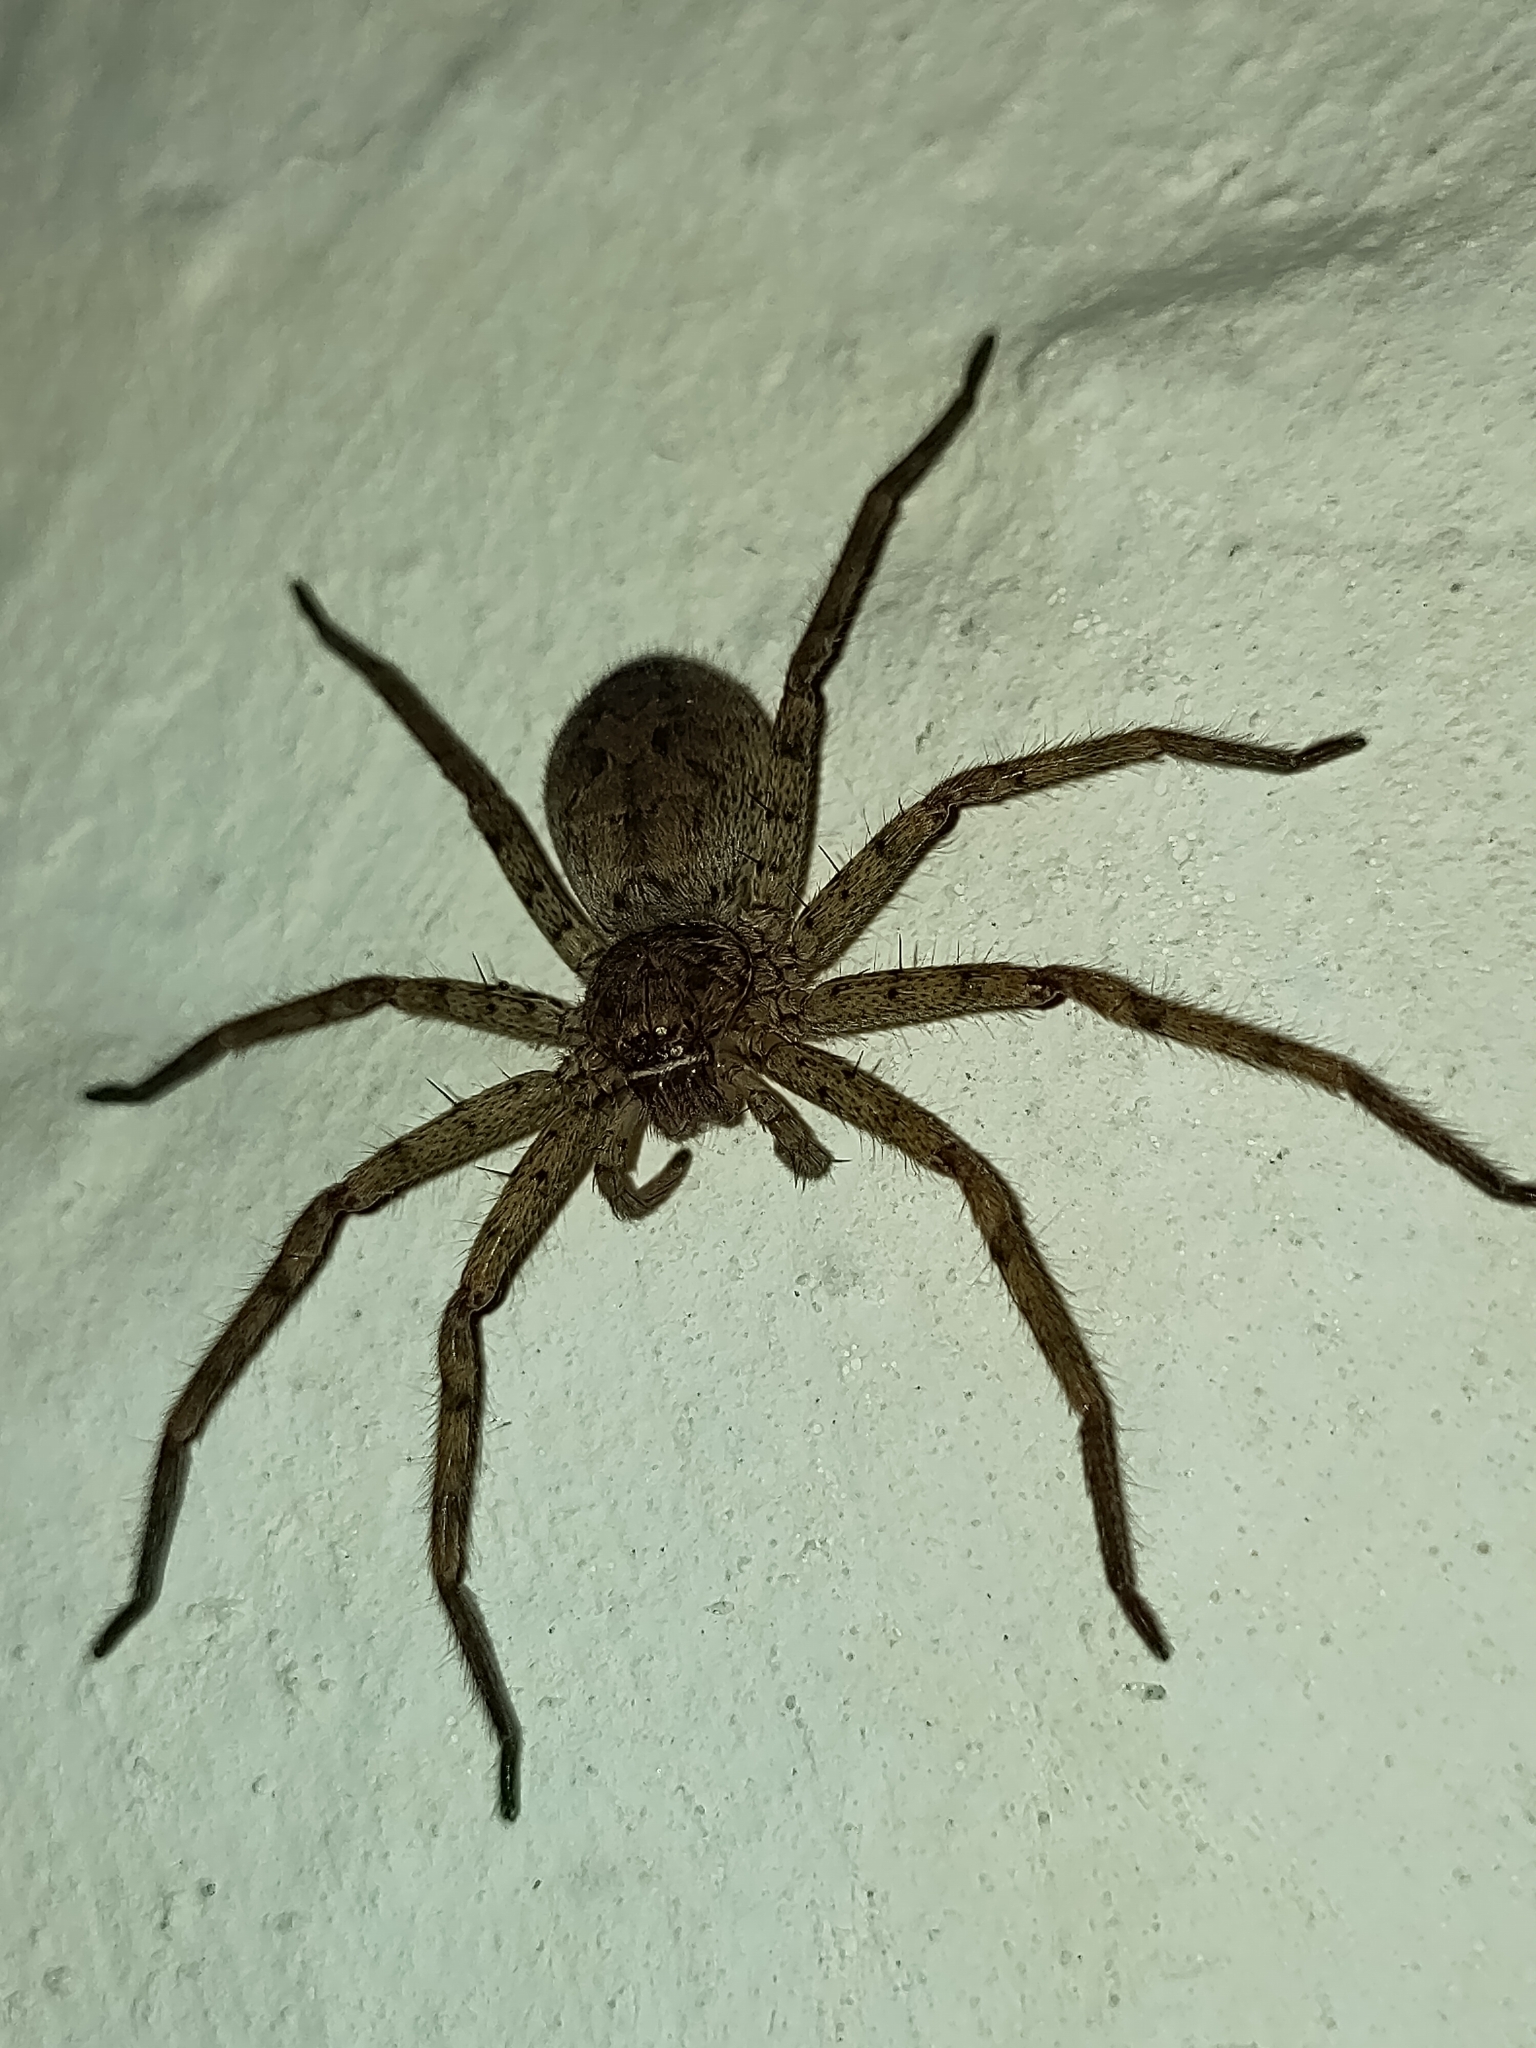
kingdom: Animalia
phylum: Arthropoda
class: Arachnida
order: Araneae
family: Sparassidae
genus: Heteropoda
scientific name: Heteropoda venatoria
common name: Huntsman spider
